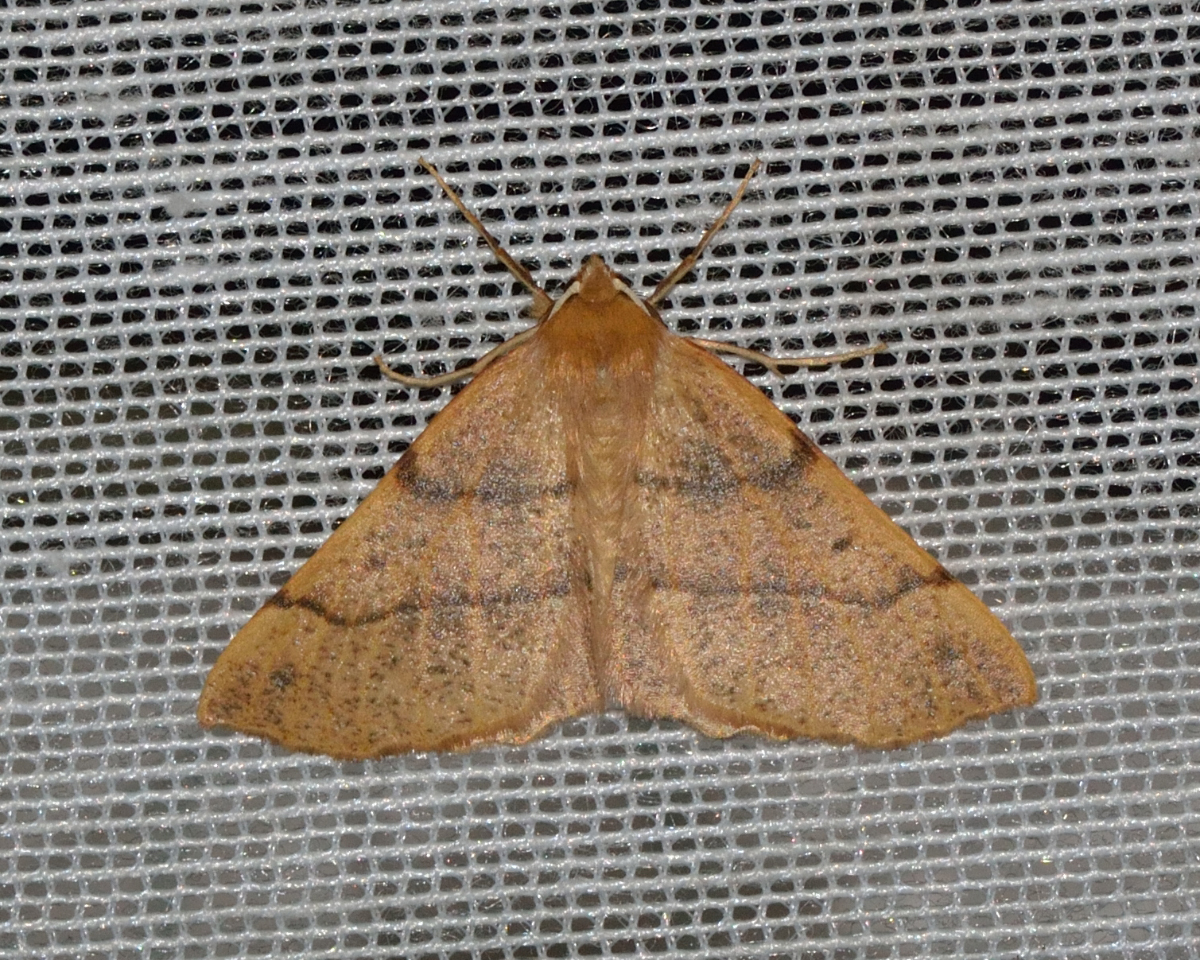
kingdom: Animalia
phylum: Arthropoda
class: Insecta
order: Lepidoptera
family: Geometridae
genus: Colotois
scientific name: Colotois pennaria
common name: Feathered thorn
